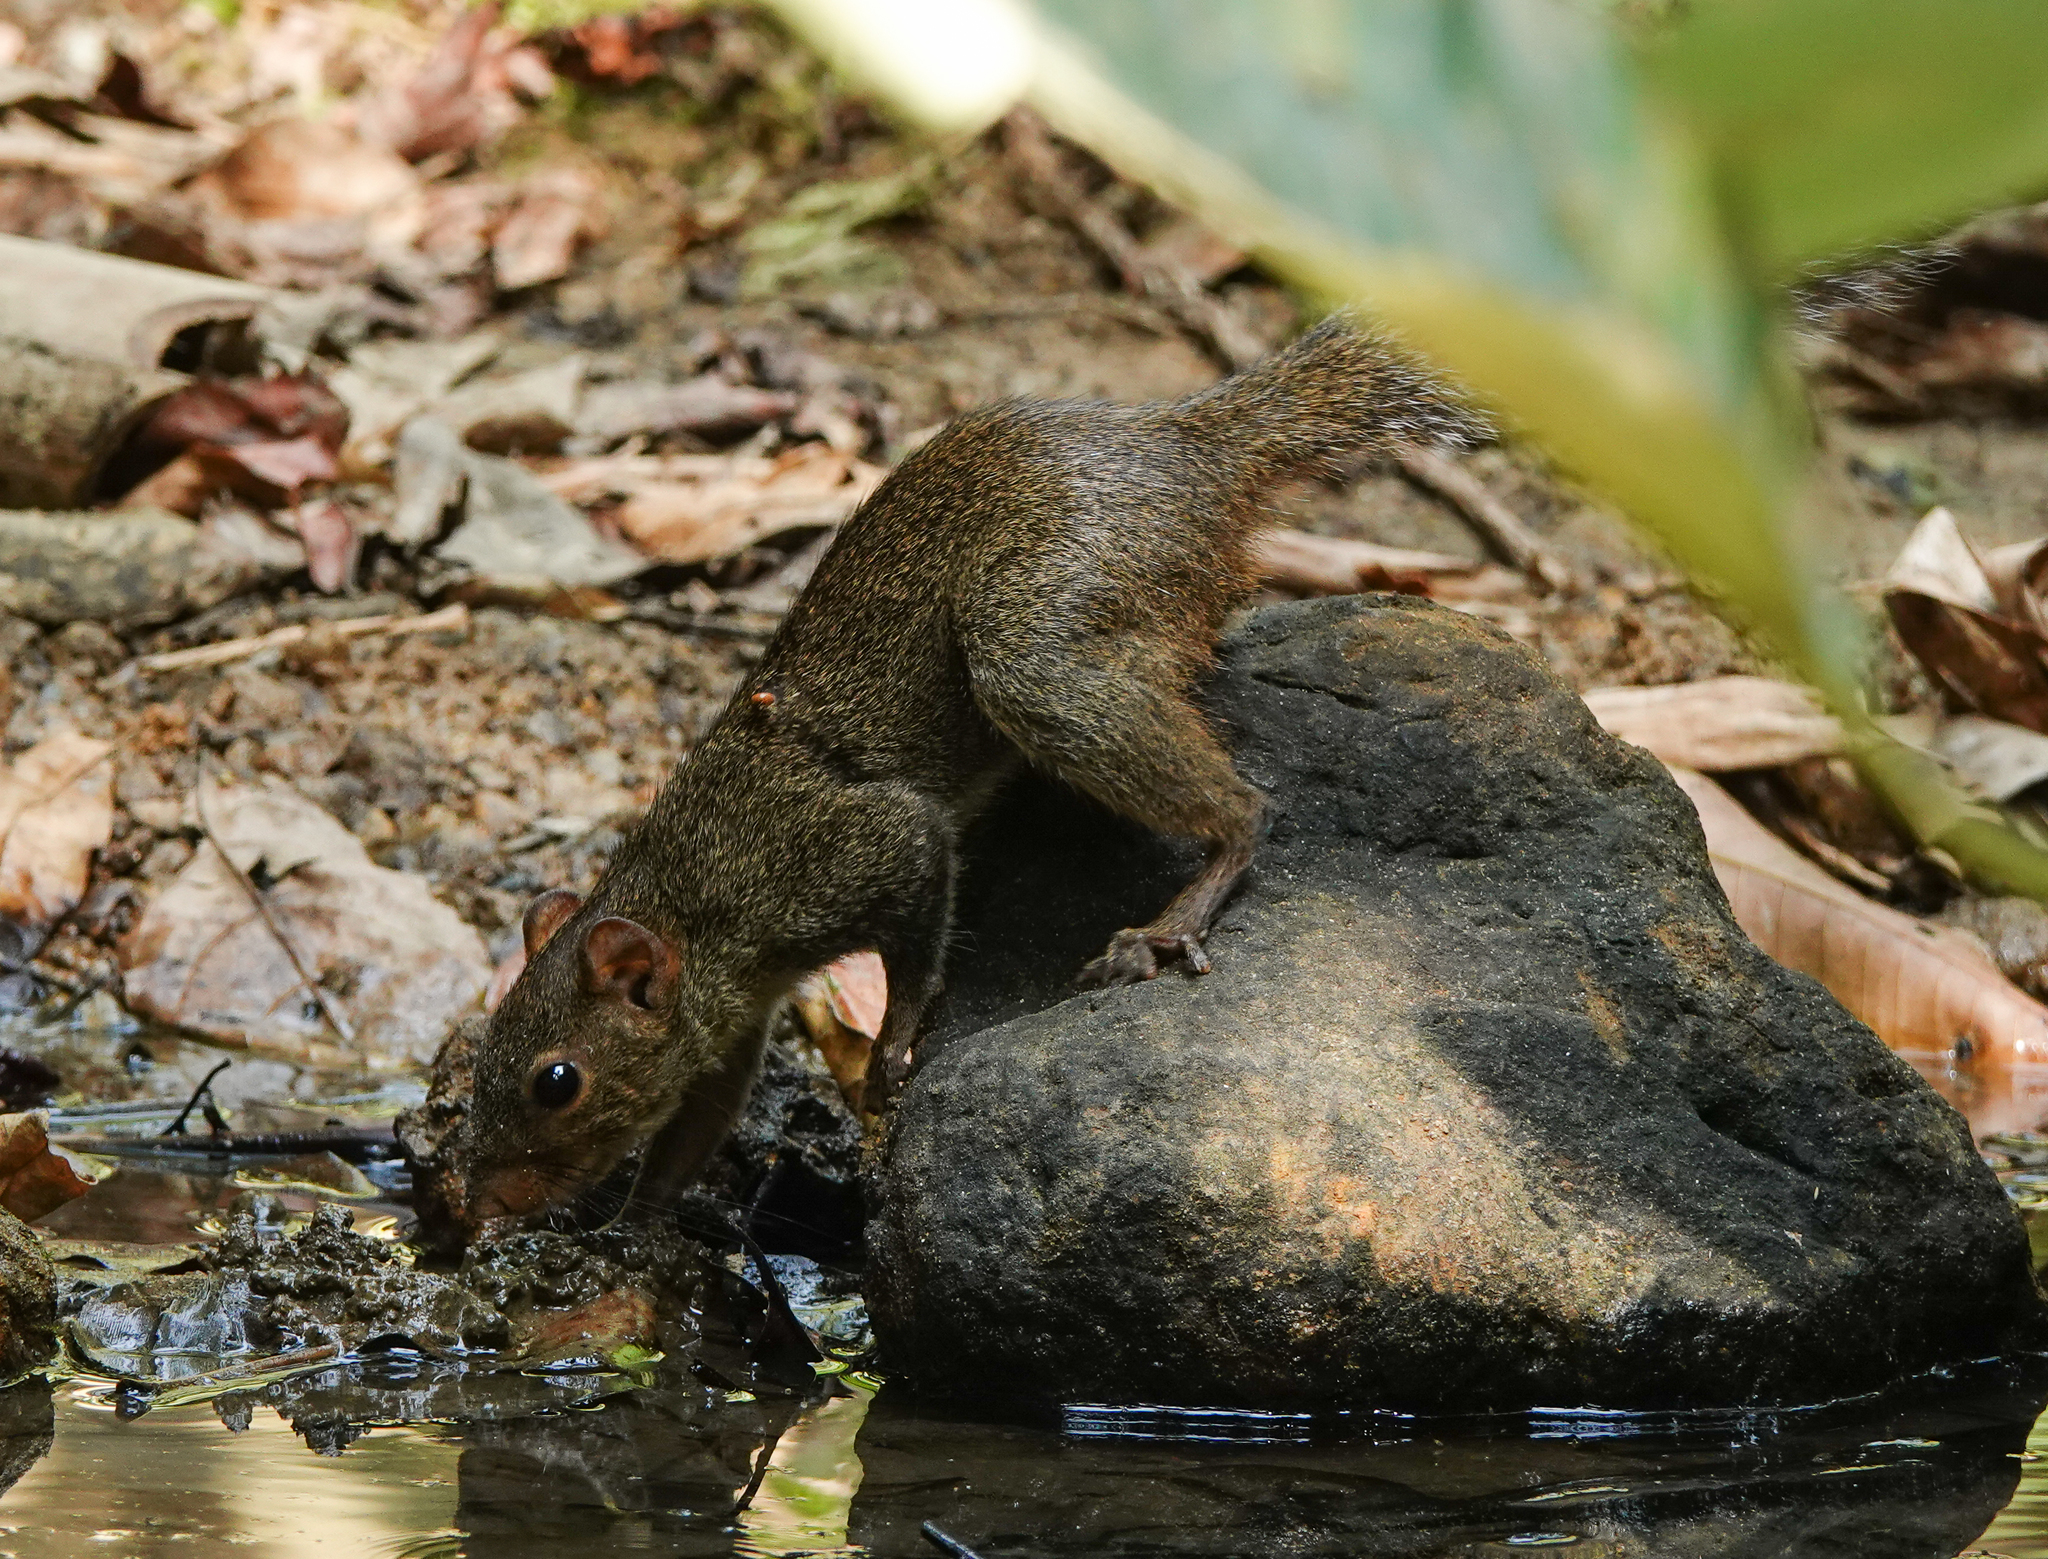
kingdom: Animalia
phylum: Chordata
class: Mammalia
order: Rodentia
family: Sciuridae
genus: Dremomys
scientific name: Dremomys lokriah
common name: Orange-bellied himalayan squirrel
